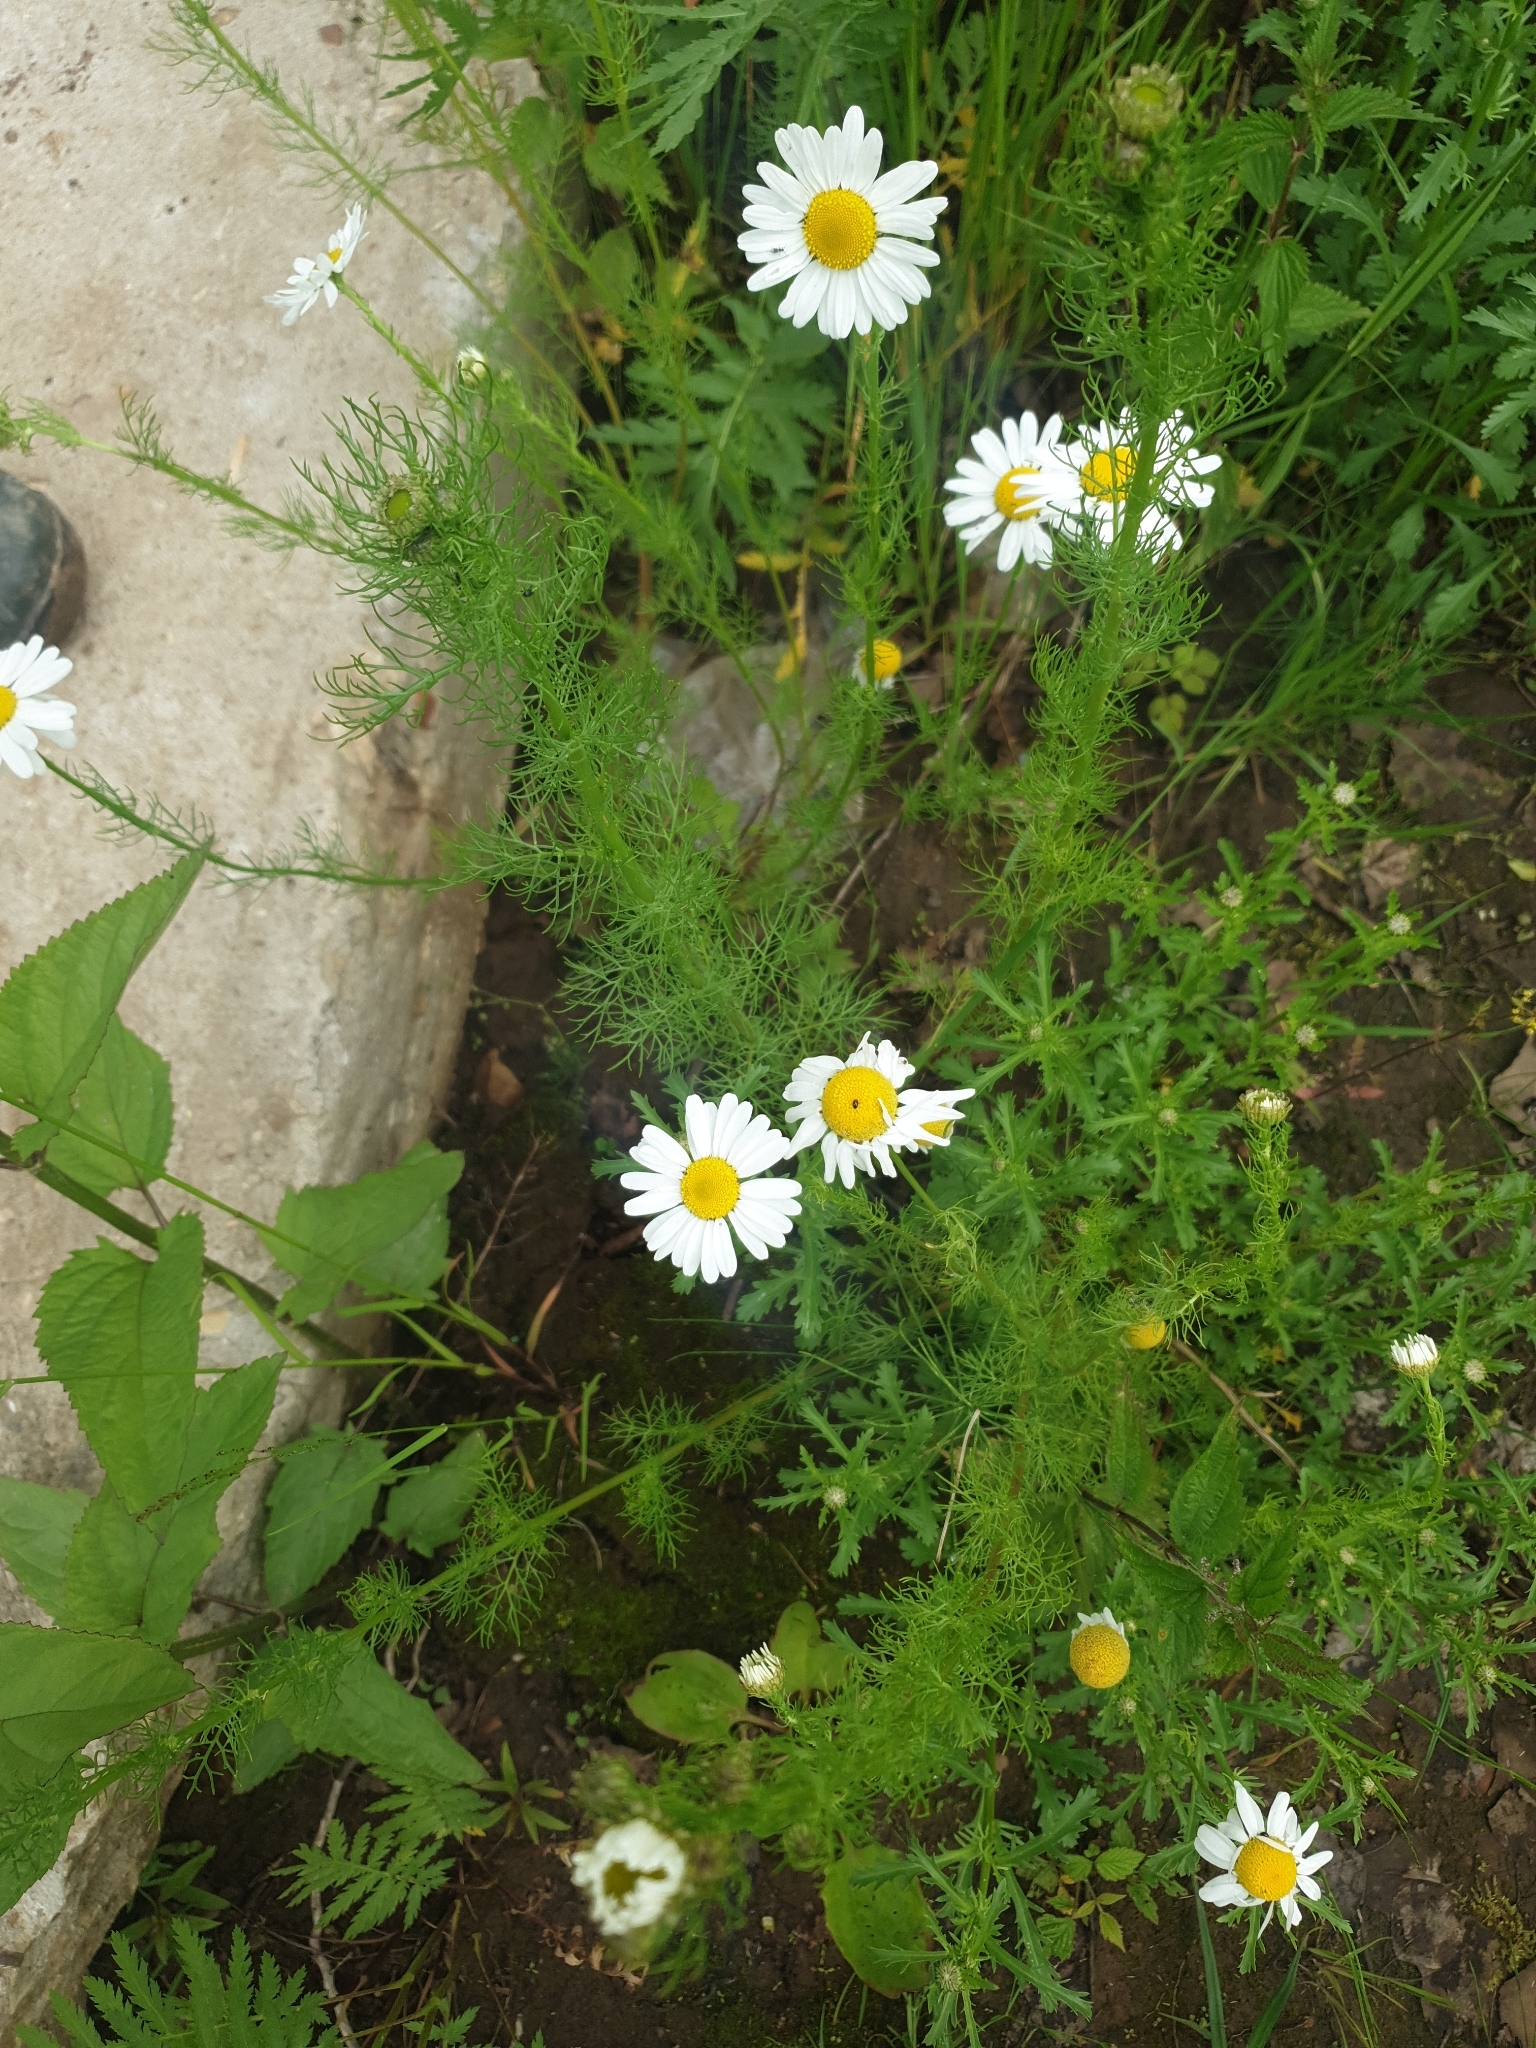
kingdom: Plantae
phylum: Tracheophyta
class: Magnoliopsida
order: Asterales
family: Asteraceae
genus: Tripleurospermum
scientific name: Tripleurospermum inodorum
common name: Scentless mayweed
